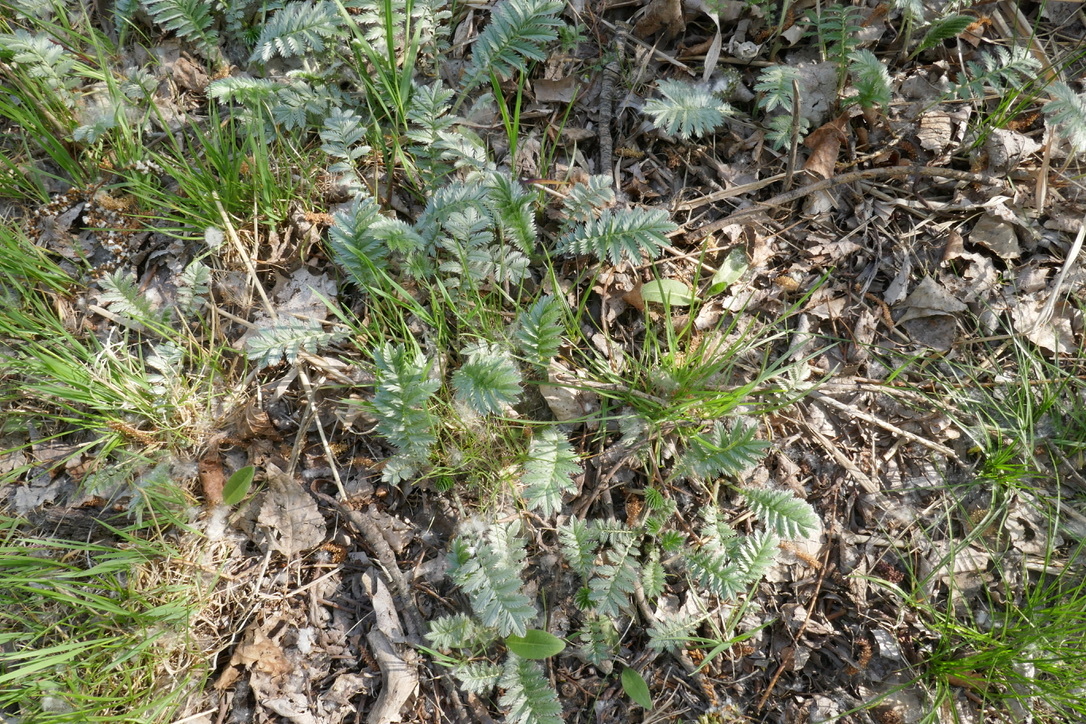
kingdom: Plantae
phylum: Tracheophyta
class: Magnoliopsida
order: Rosales
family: Rosaceae
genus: Argentina
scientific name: Argentina anserina
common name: Common silverweed
